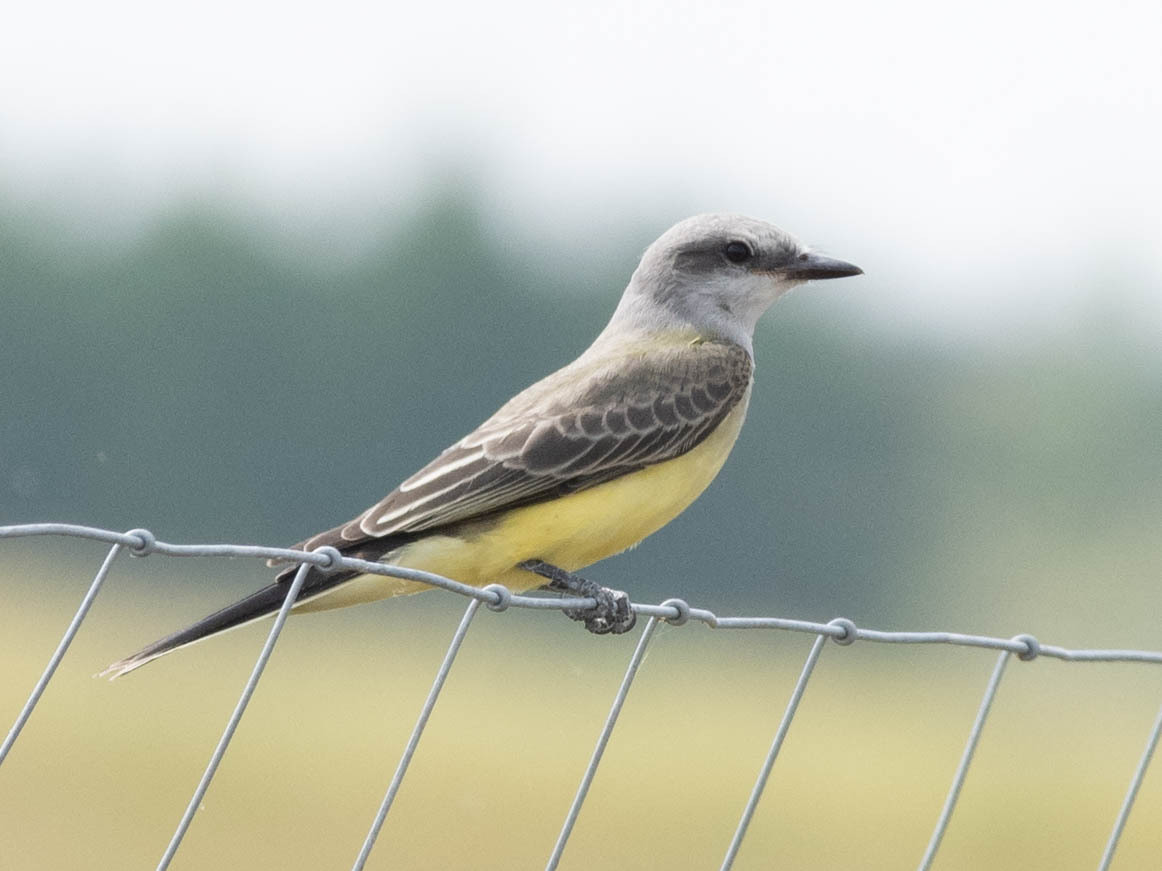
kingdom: Animalia
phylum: Chordata
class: Aves
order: Passeriformes
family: Tyrannidae
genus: Tyrannus
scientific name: Tyrannus verticalis
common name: Western kingbird
